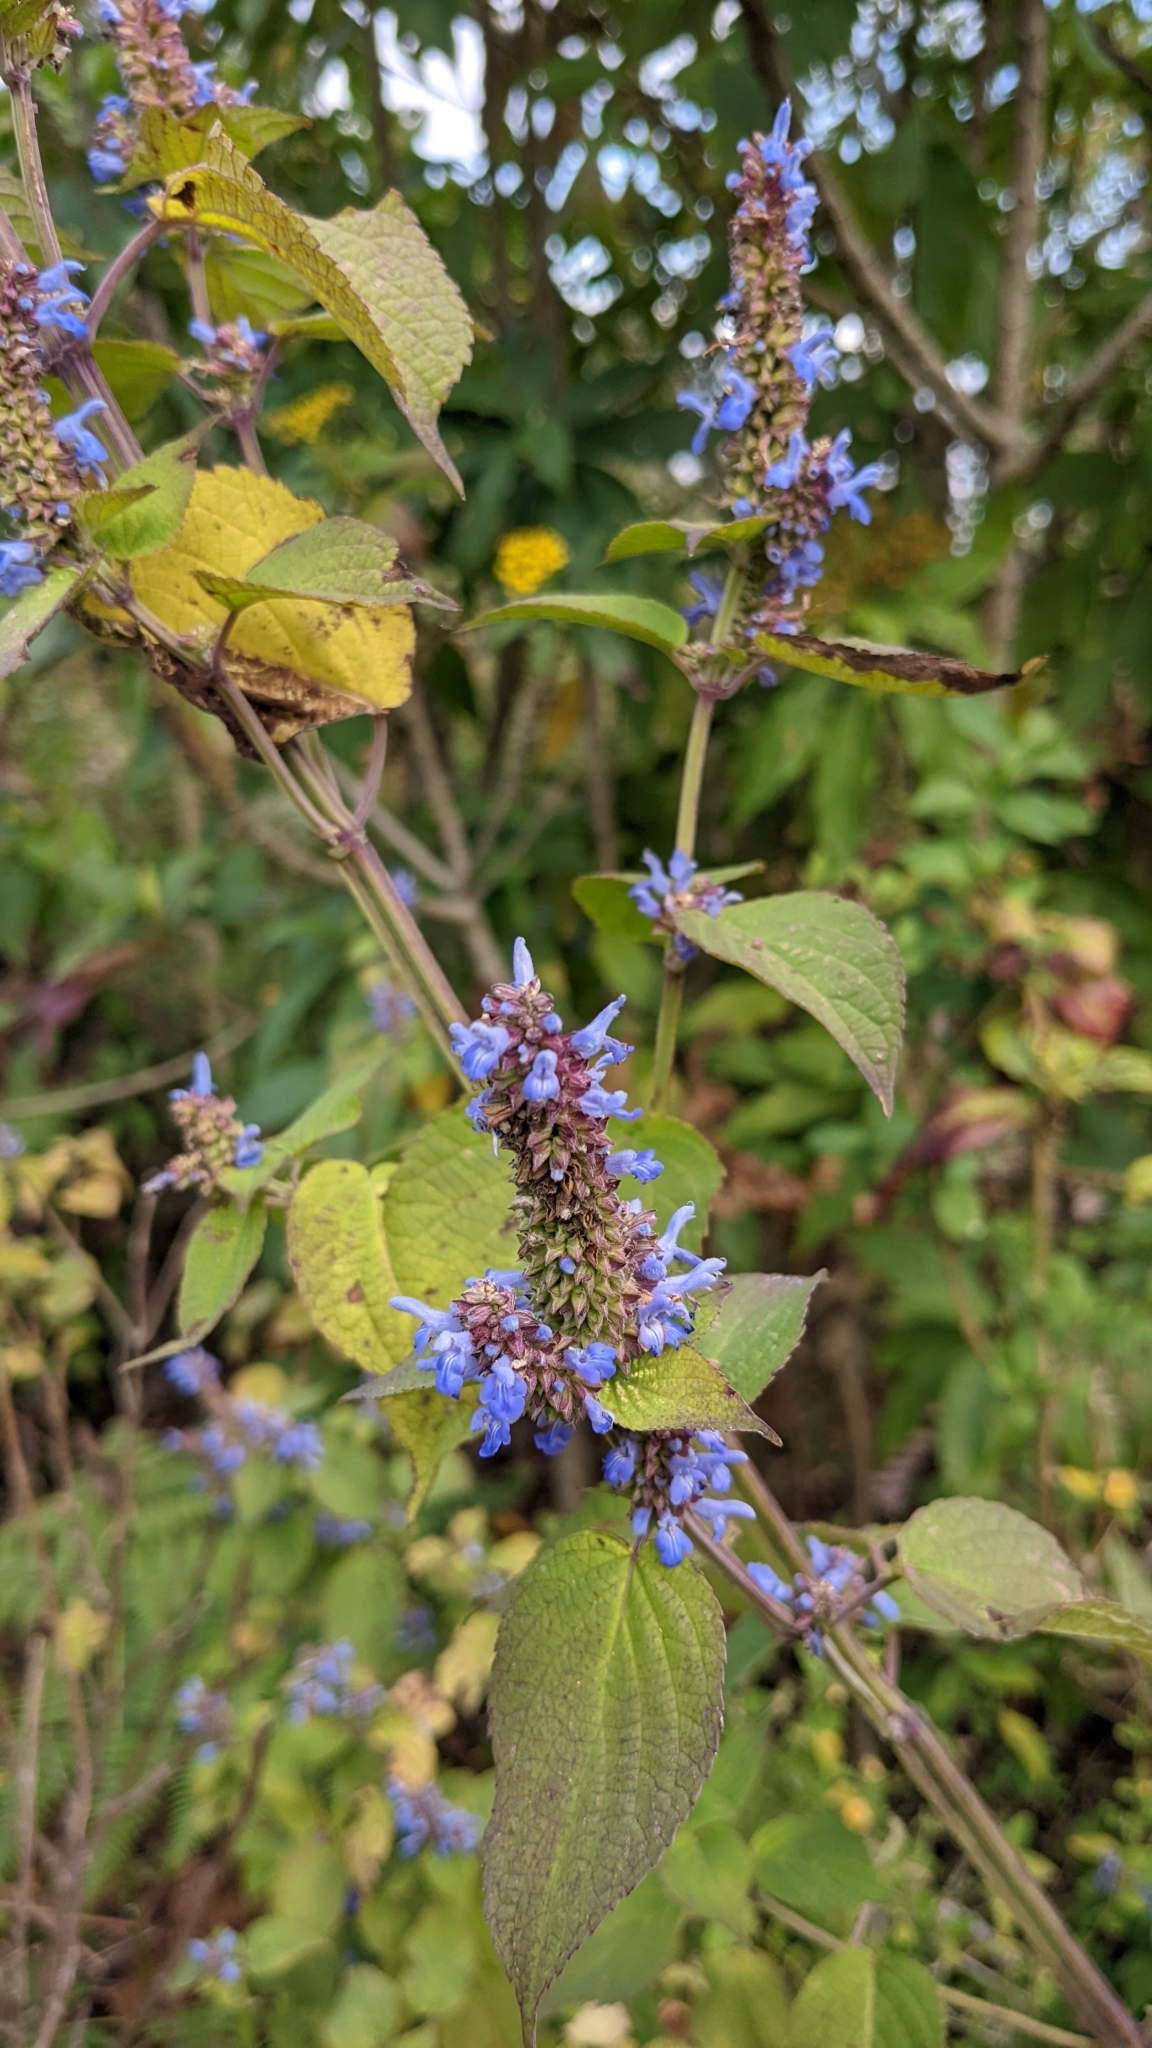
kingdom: Plantae
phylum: Tracheophyta
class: Magnoliopsida
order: Lamiales
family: Lamiaceae
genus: Salvia
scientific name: Salvia polystachia
